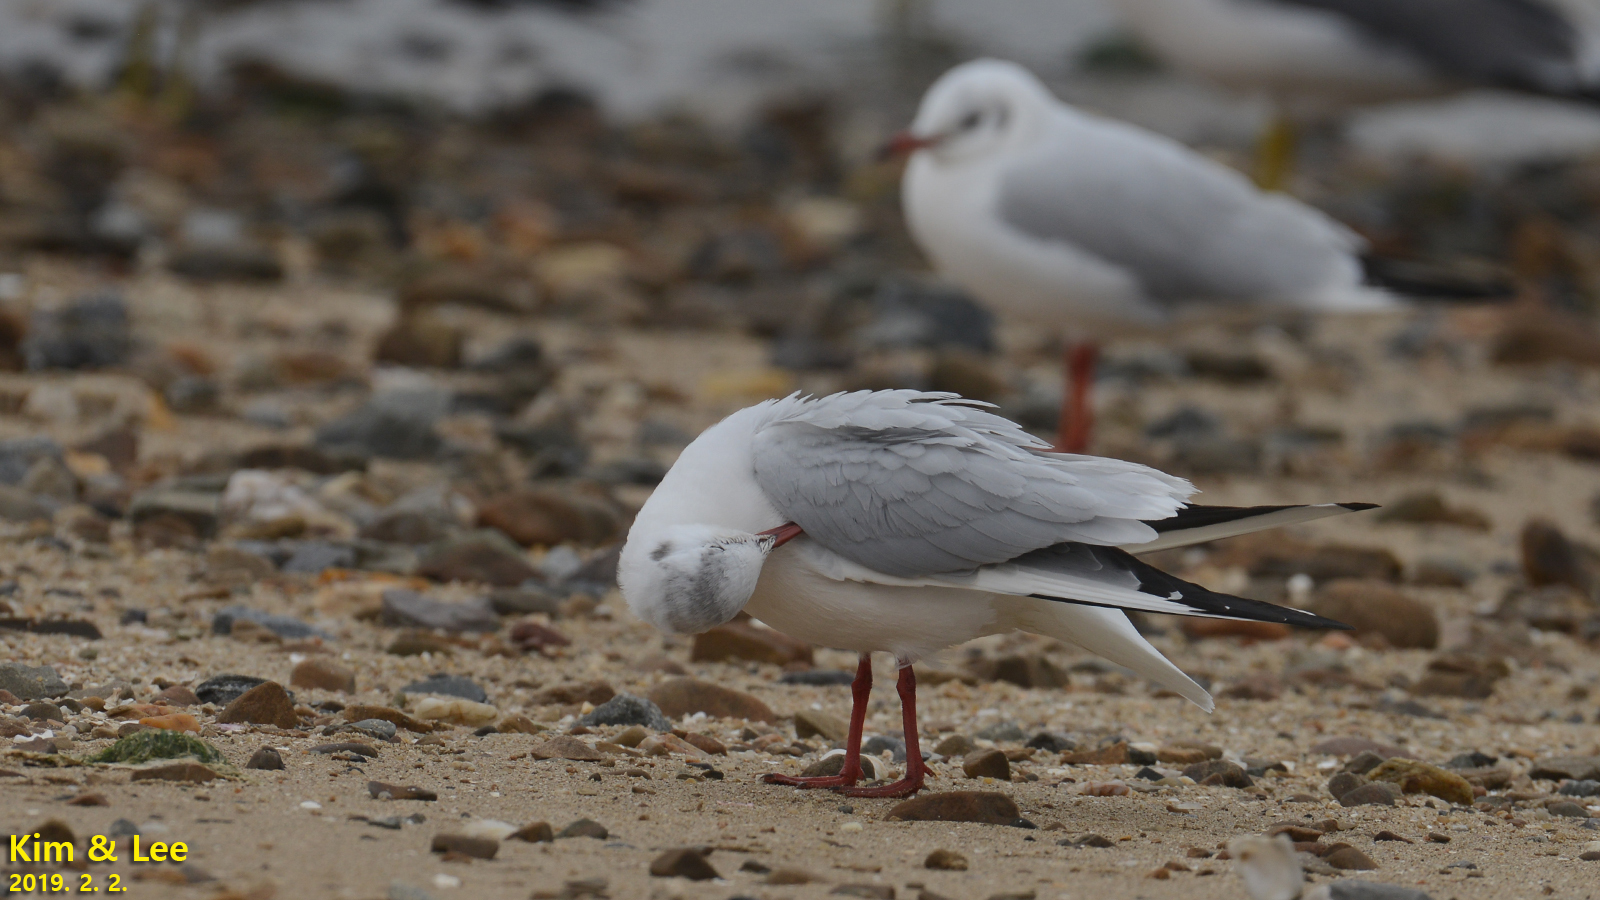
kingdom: Animalia
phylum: Chordata
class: Aves
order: Charadriiformes
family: Laridae
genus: Chroicocephalus
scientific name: Chroicocephalus ridibundus
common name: Black-headed gull
